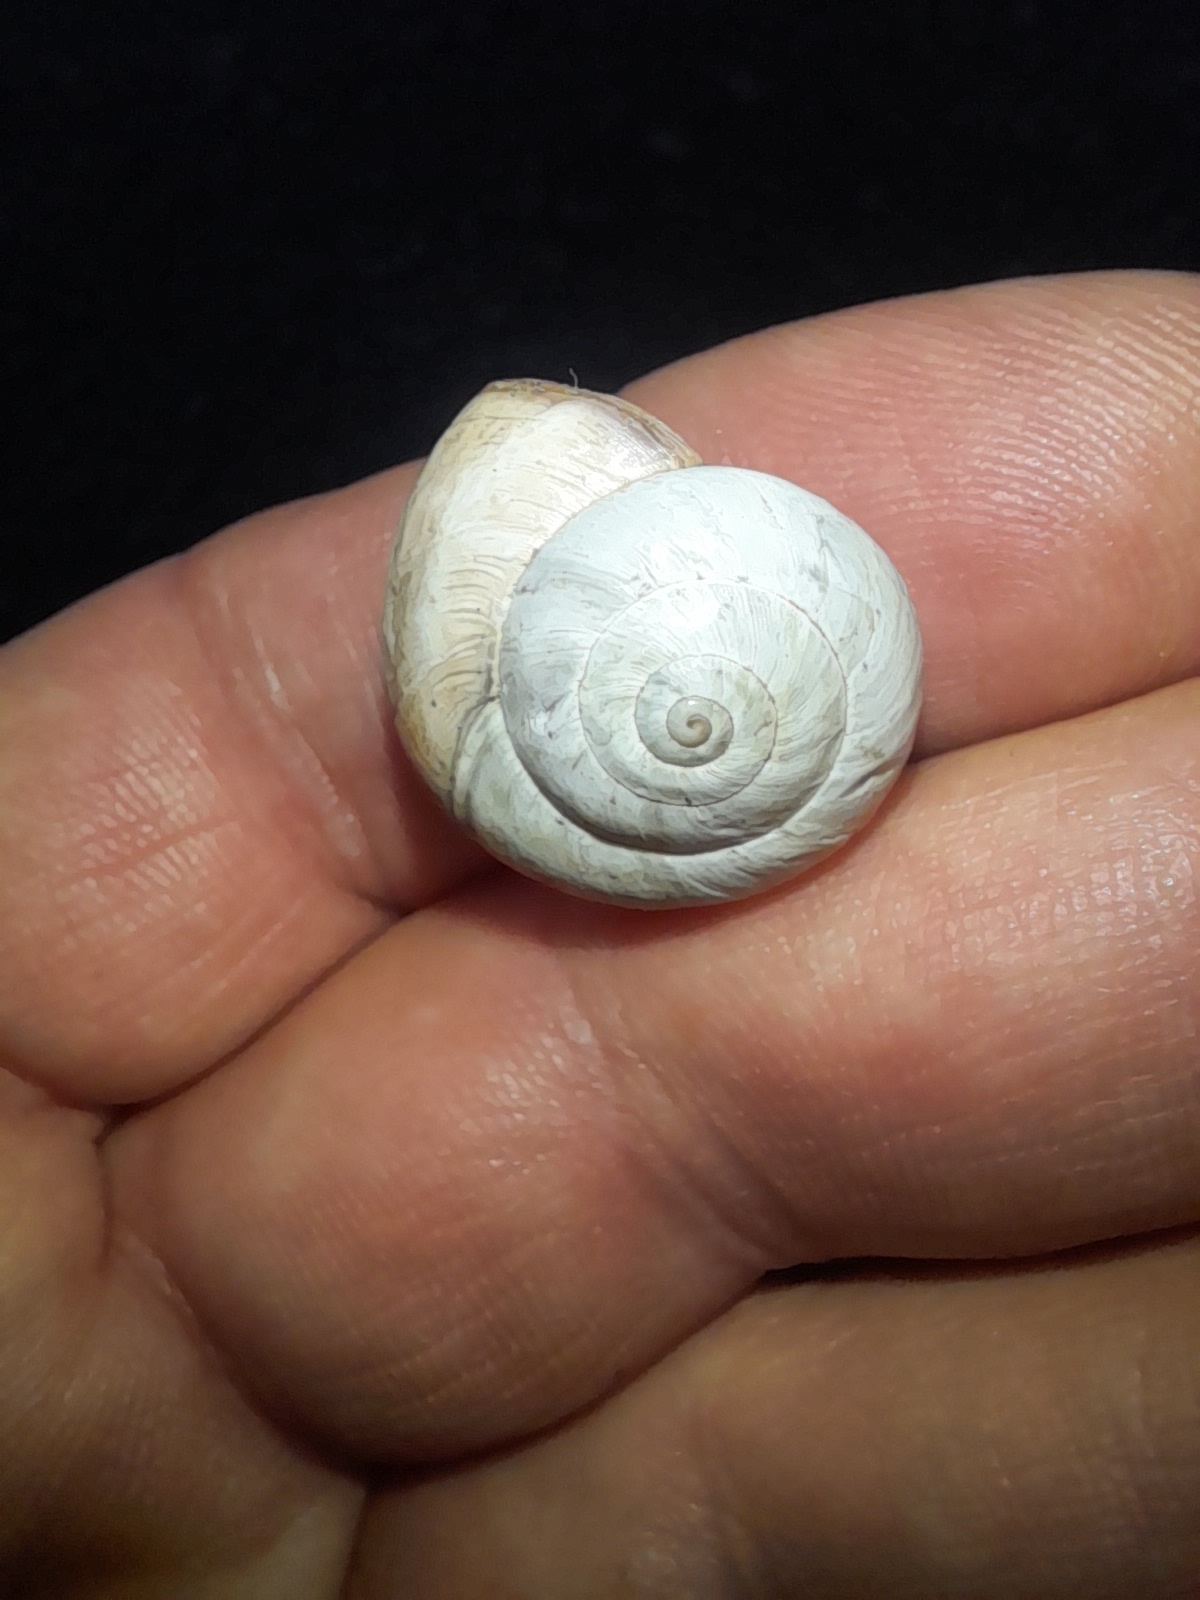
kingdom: Animalia
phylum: Mollusca
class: Gastropoda
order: Stylommatophora
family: Helicidae
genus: Theba
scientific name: Theba pisana
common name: White snail
